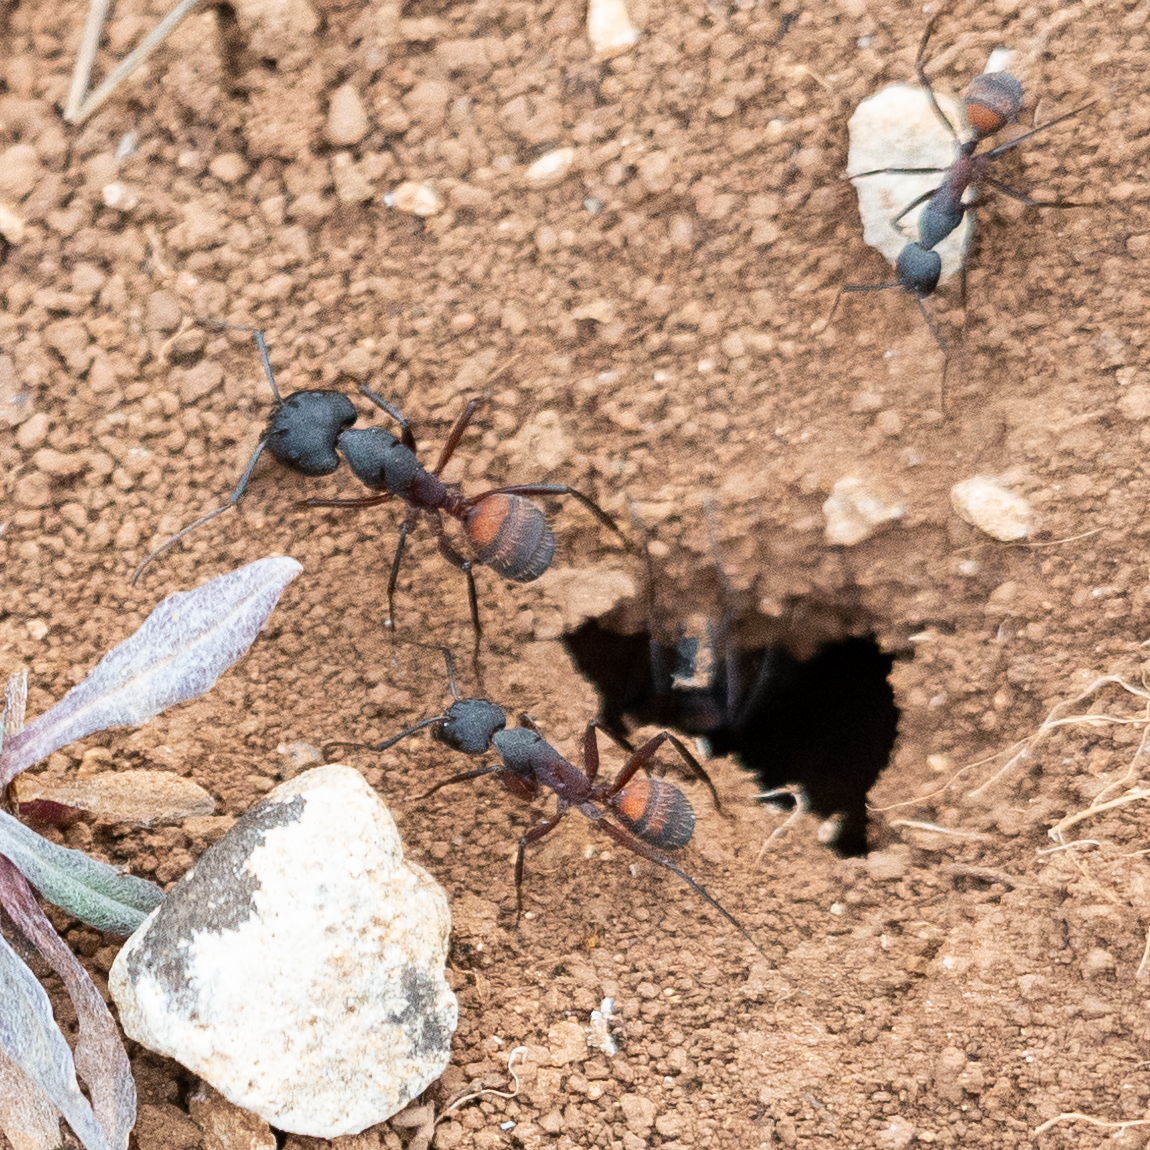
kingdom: Animalia
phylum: Arthropoda
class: Insecta
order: Hymenoptera
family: Formicidae
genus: Camponotus
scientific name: Camponotus cruentatus
